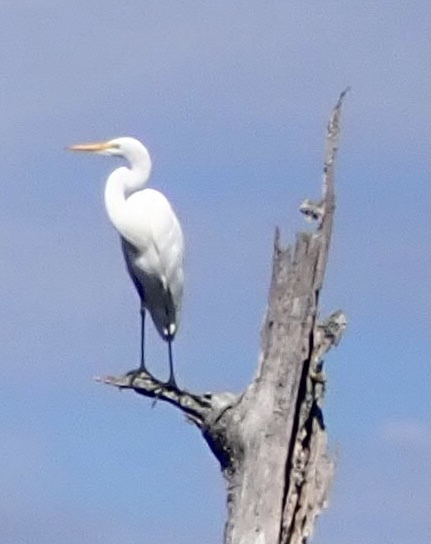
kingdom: Animalia
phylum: Chordata
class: Aves
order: Pelecaniformes
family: Ardeidae
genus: Ardea
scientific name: Ardea alba
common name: Great egret
